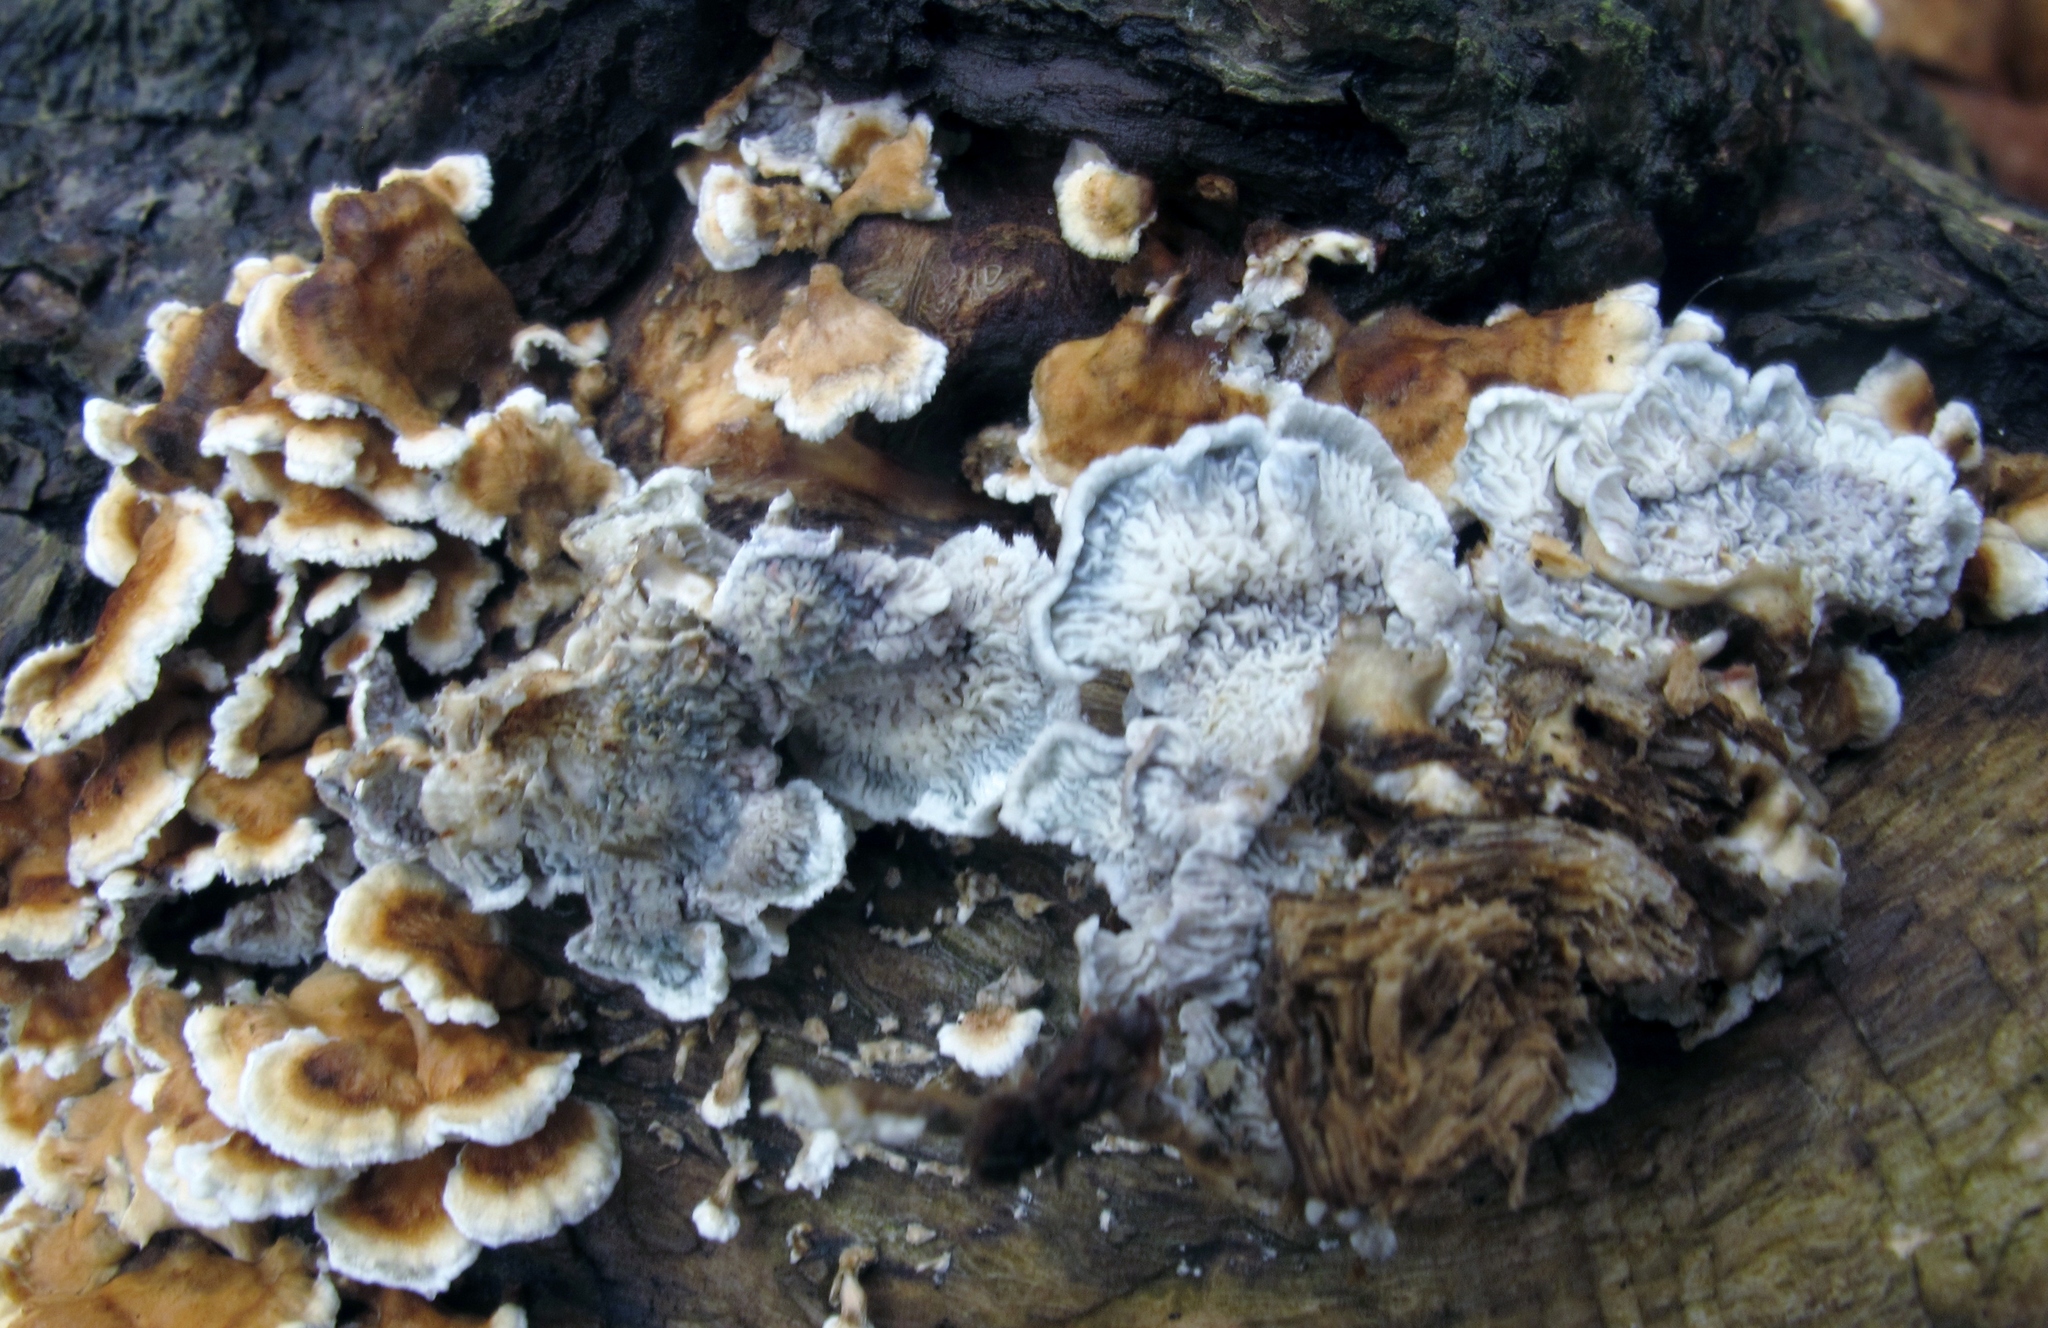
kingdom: Fungi
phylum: Basidiomycota
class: Agaricomycetes
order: Amylocorticiales
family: Amylocorticiaceae
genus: Plicaturopsis
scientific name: Plicaturopsis crispa
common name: Crimped gill
